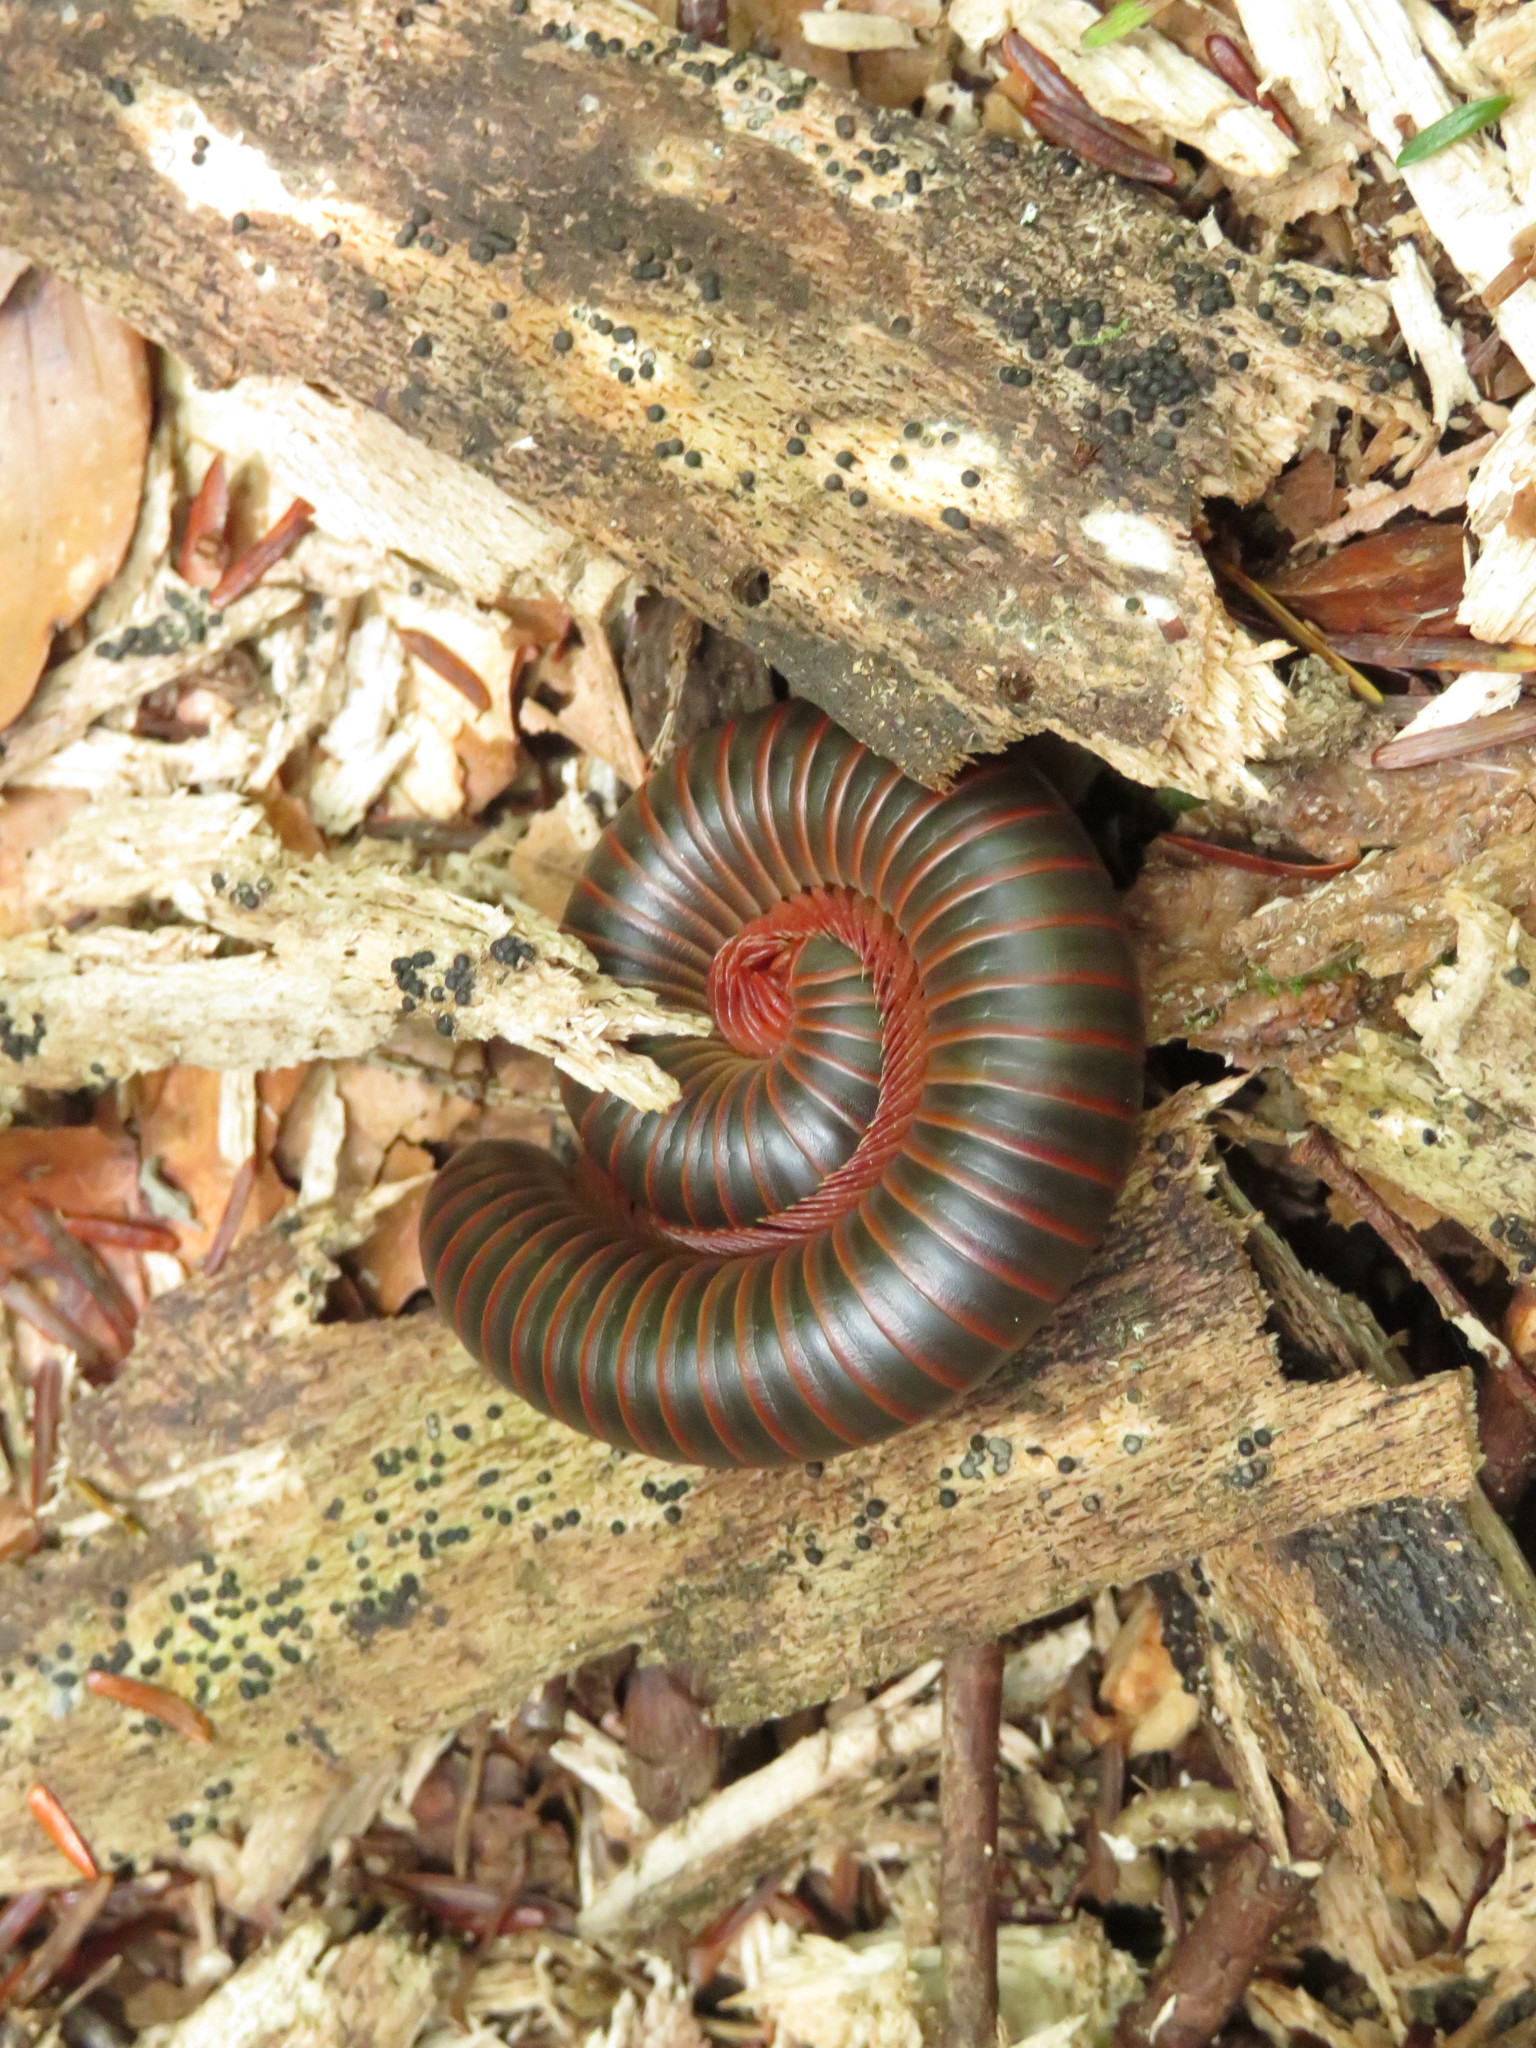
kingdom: Animalia
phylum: Arthropoda
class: Diplopoda
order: Spirobolida
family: Spirobolidae
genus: Narceus
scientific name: Narceus
